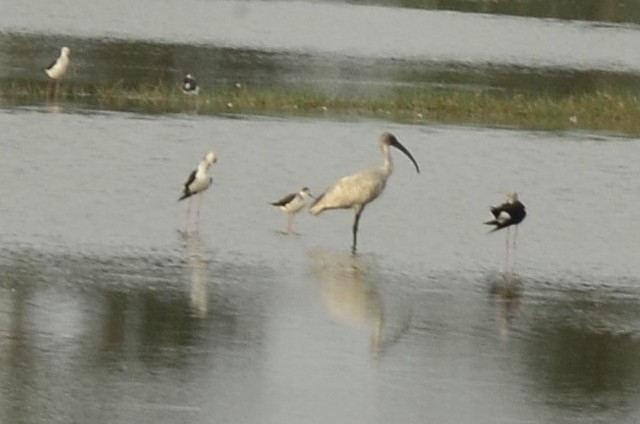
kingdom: Animalia
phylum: Chordata
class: Aves
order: Pelecaniformes
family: Threskiornithidae
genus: Threskiornis
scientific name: Threskiornis melanocephalus
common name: Black-headed ibis
